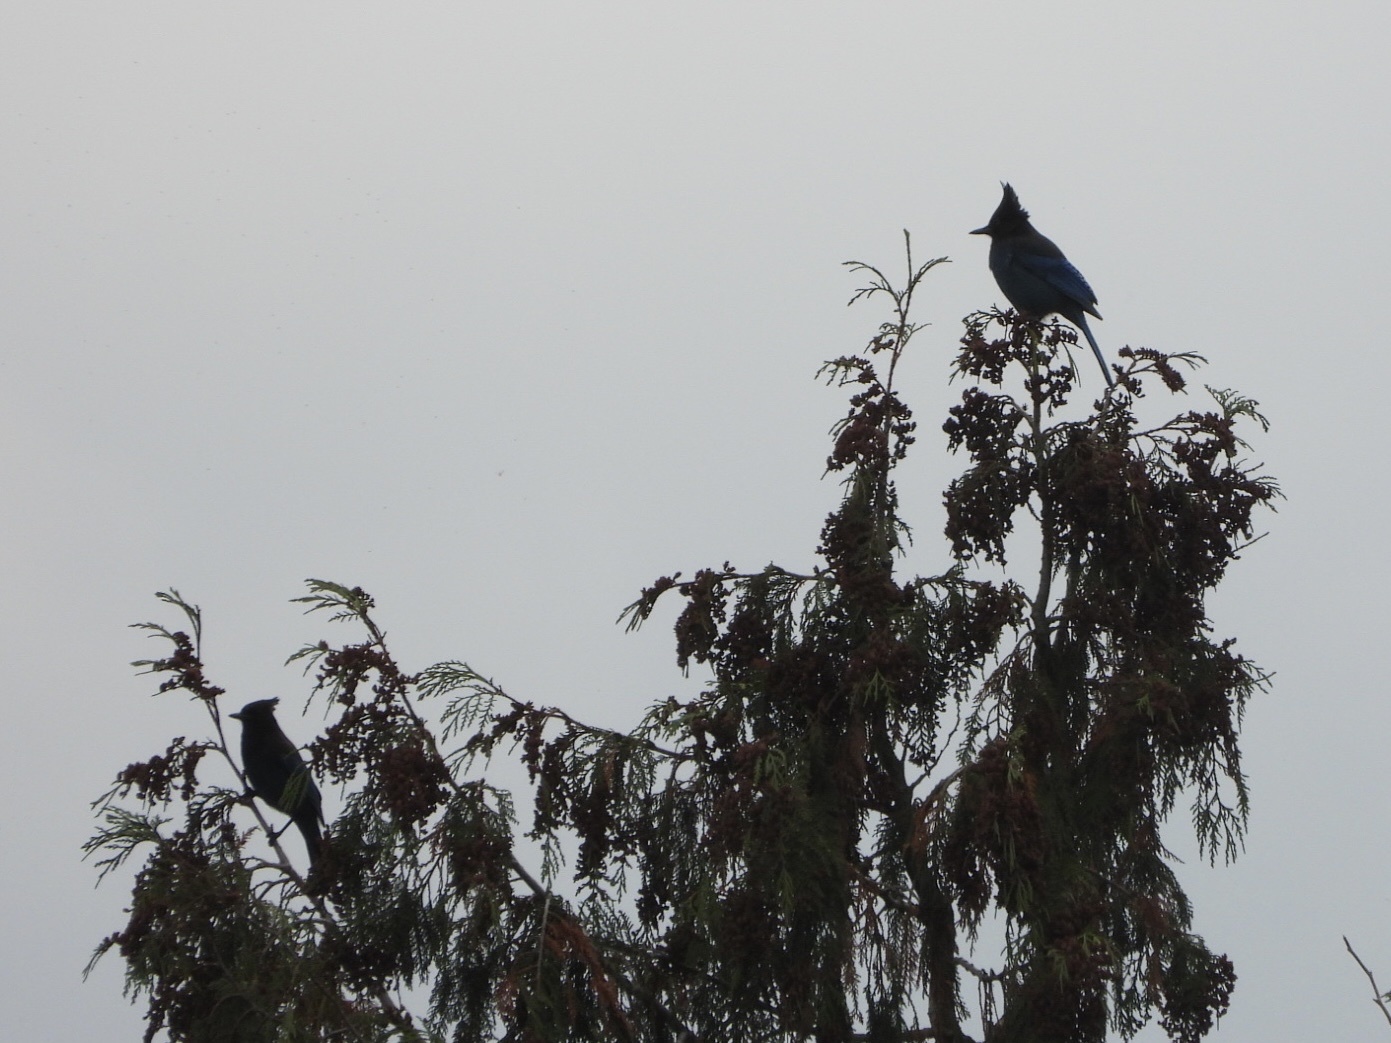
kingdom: Animalia
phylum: Chordata
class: Aves
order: Passeriformes
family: Corvidae
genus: Cyanocitta
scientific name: Cyanocitta stelleri
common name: Steller's jay
